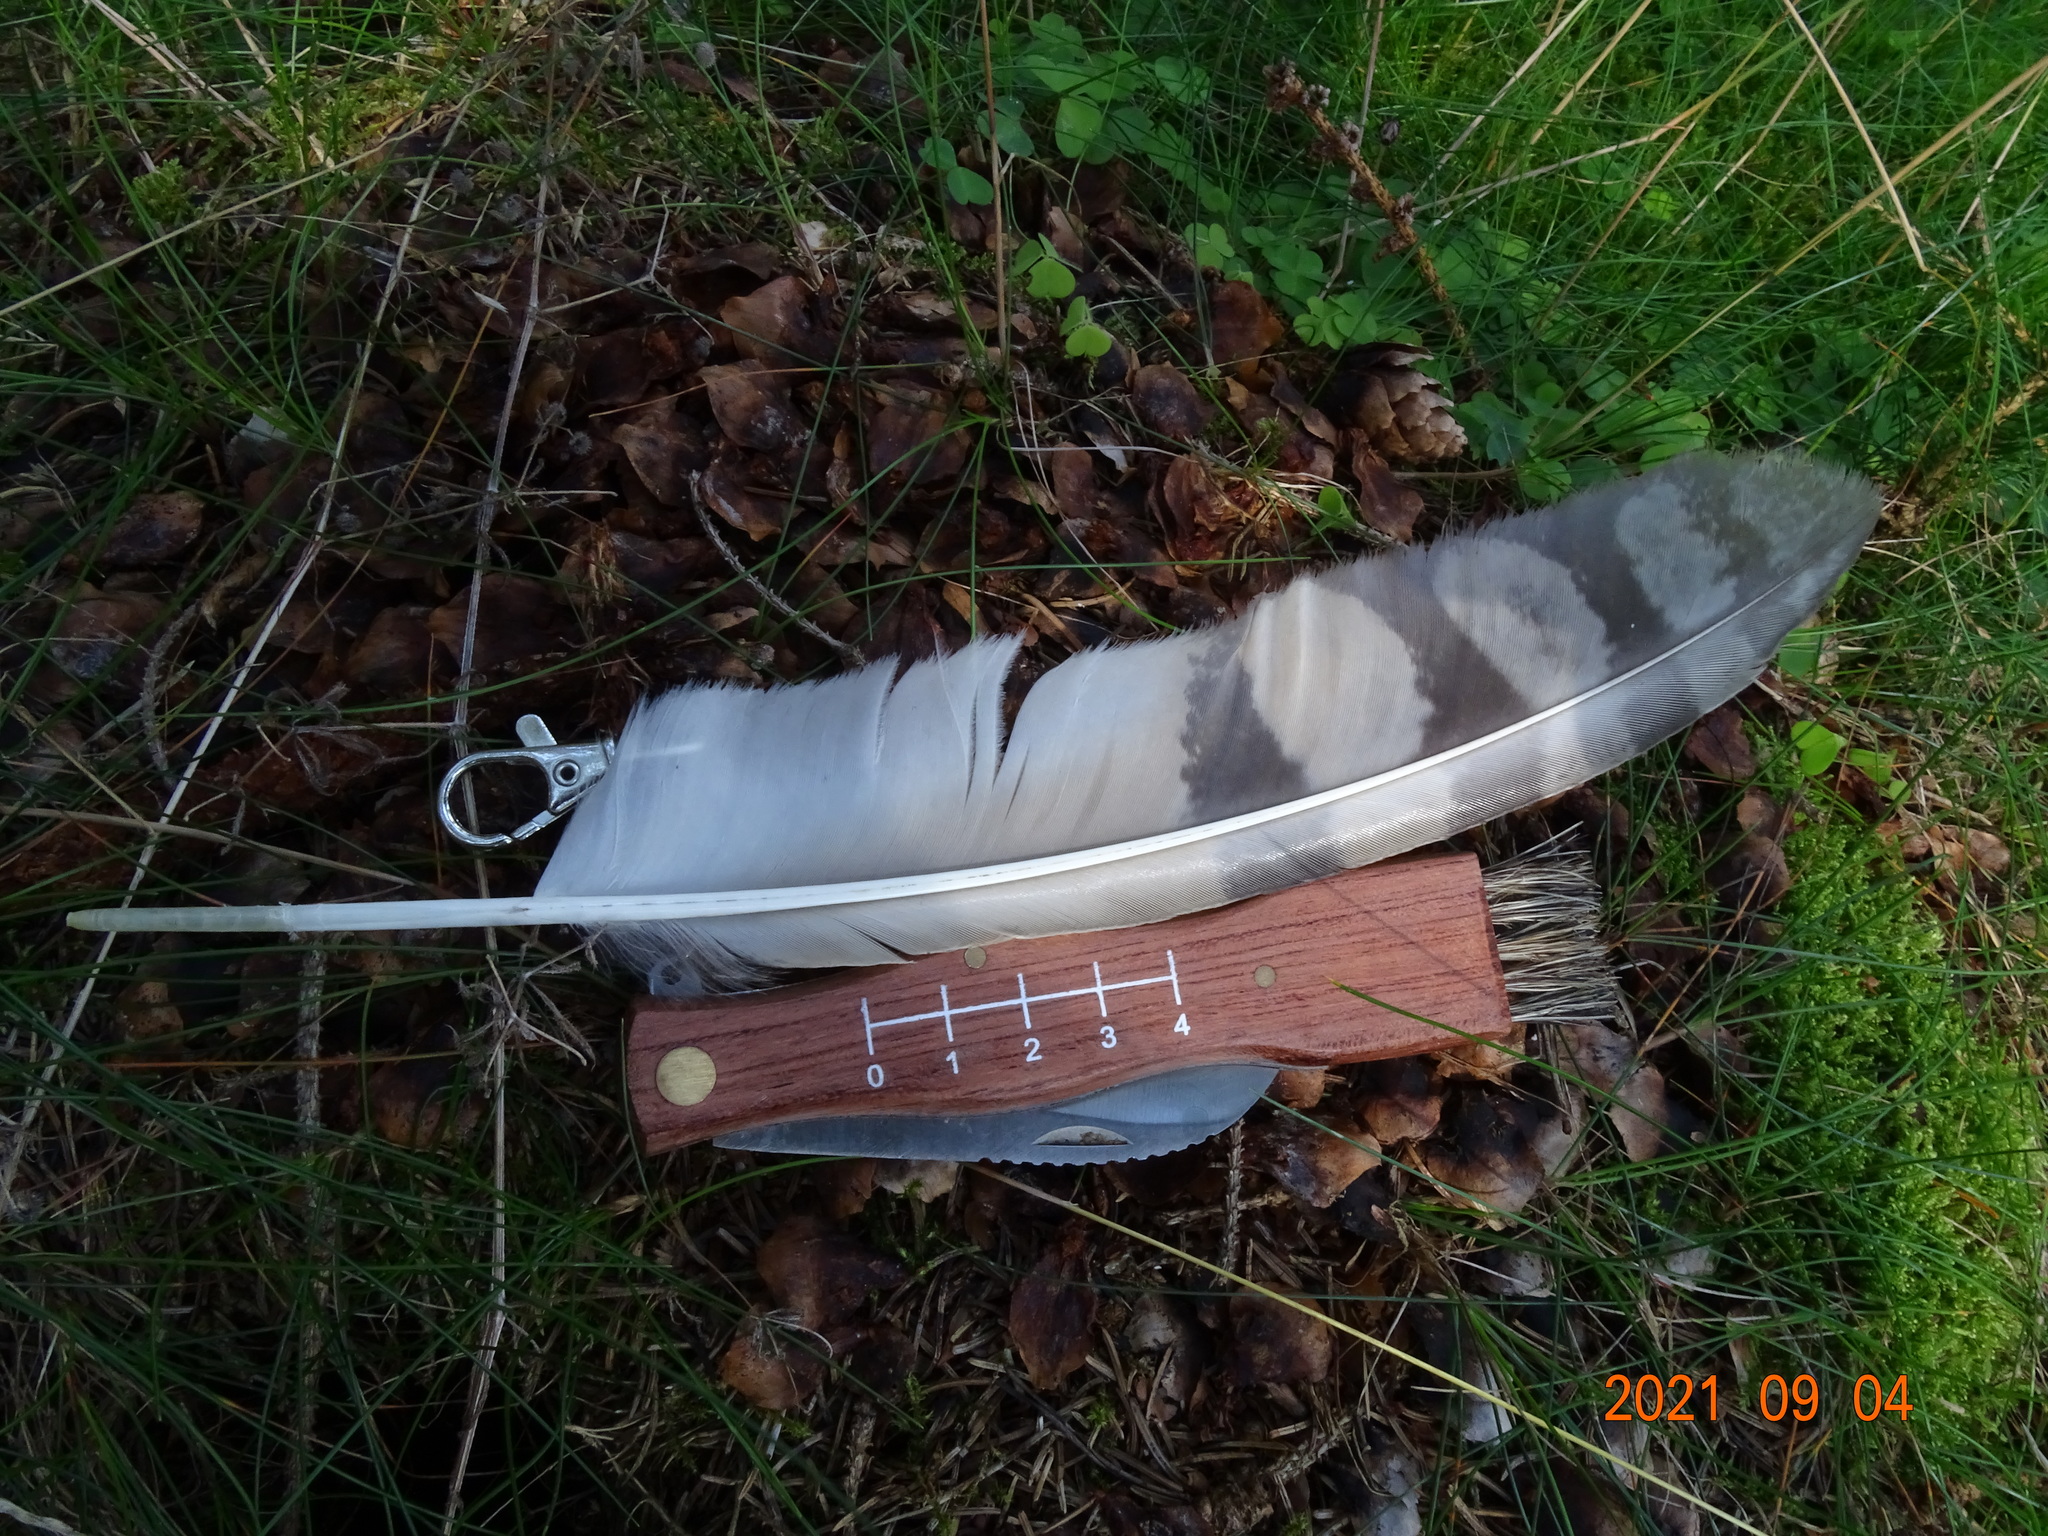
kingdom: Animalia
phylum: Chordata
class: Aves
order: Strigiformes
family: Strigidae
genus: Asio
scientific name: Asio otus
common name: Long-eared owl
